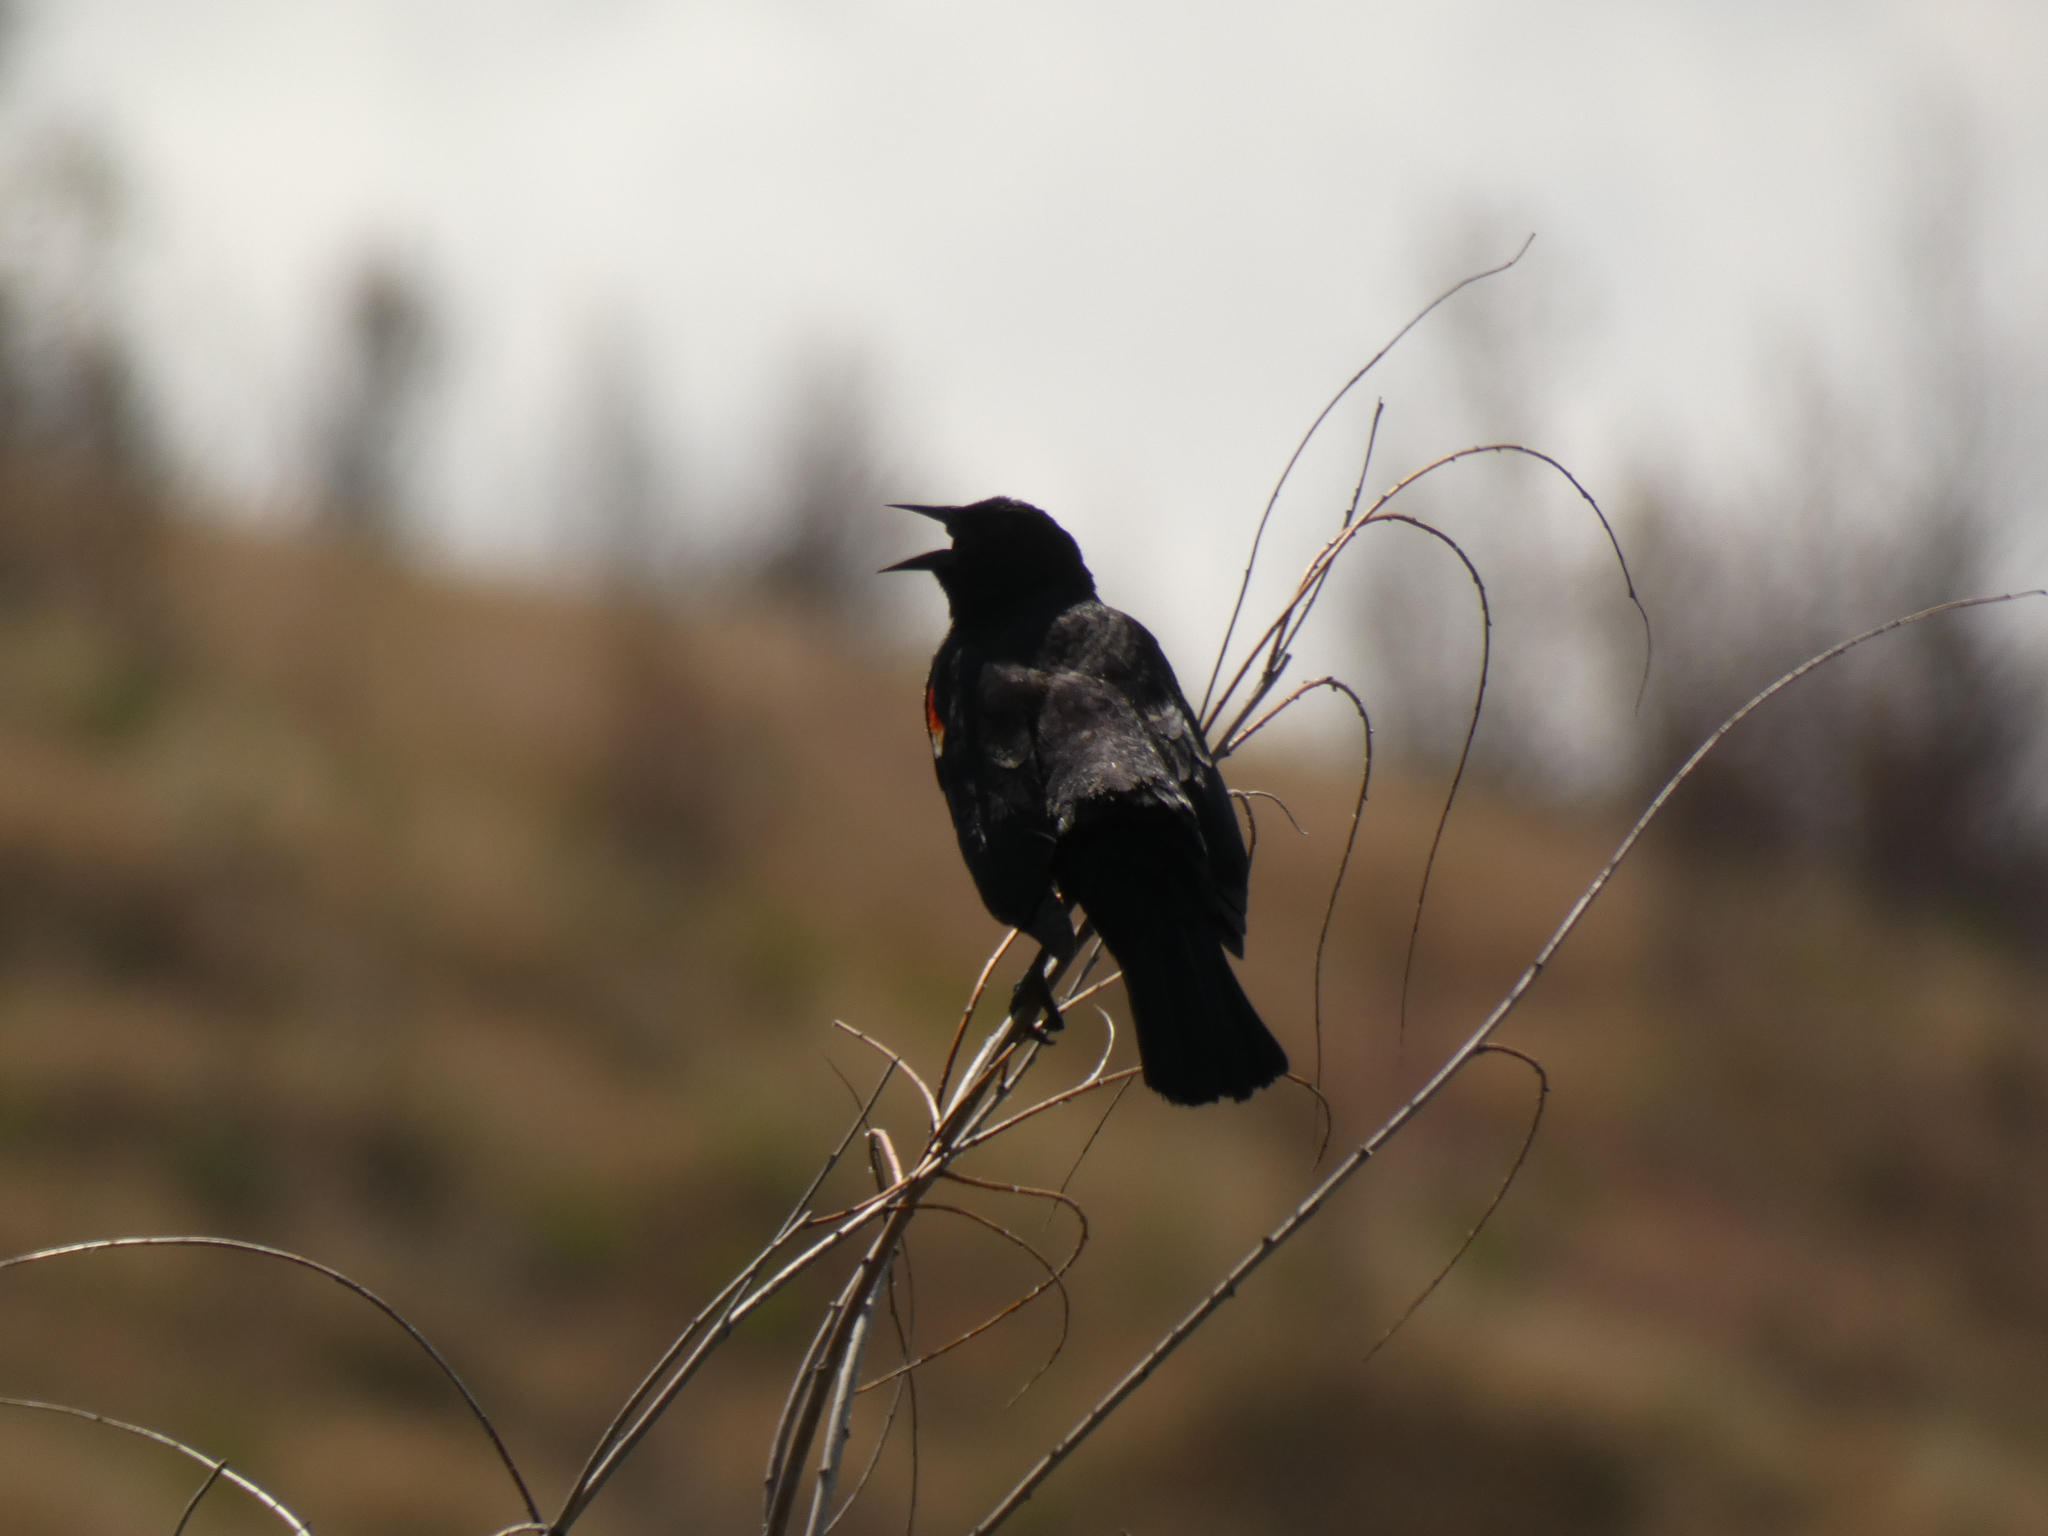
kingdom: Animalia
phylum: Chordata
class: Aves
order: Passeriformes
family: Icteridae
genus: Agelaius
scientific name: Agelaius phoeniceus
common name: Red-winged blackbird
